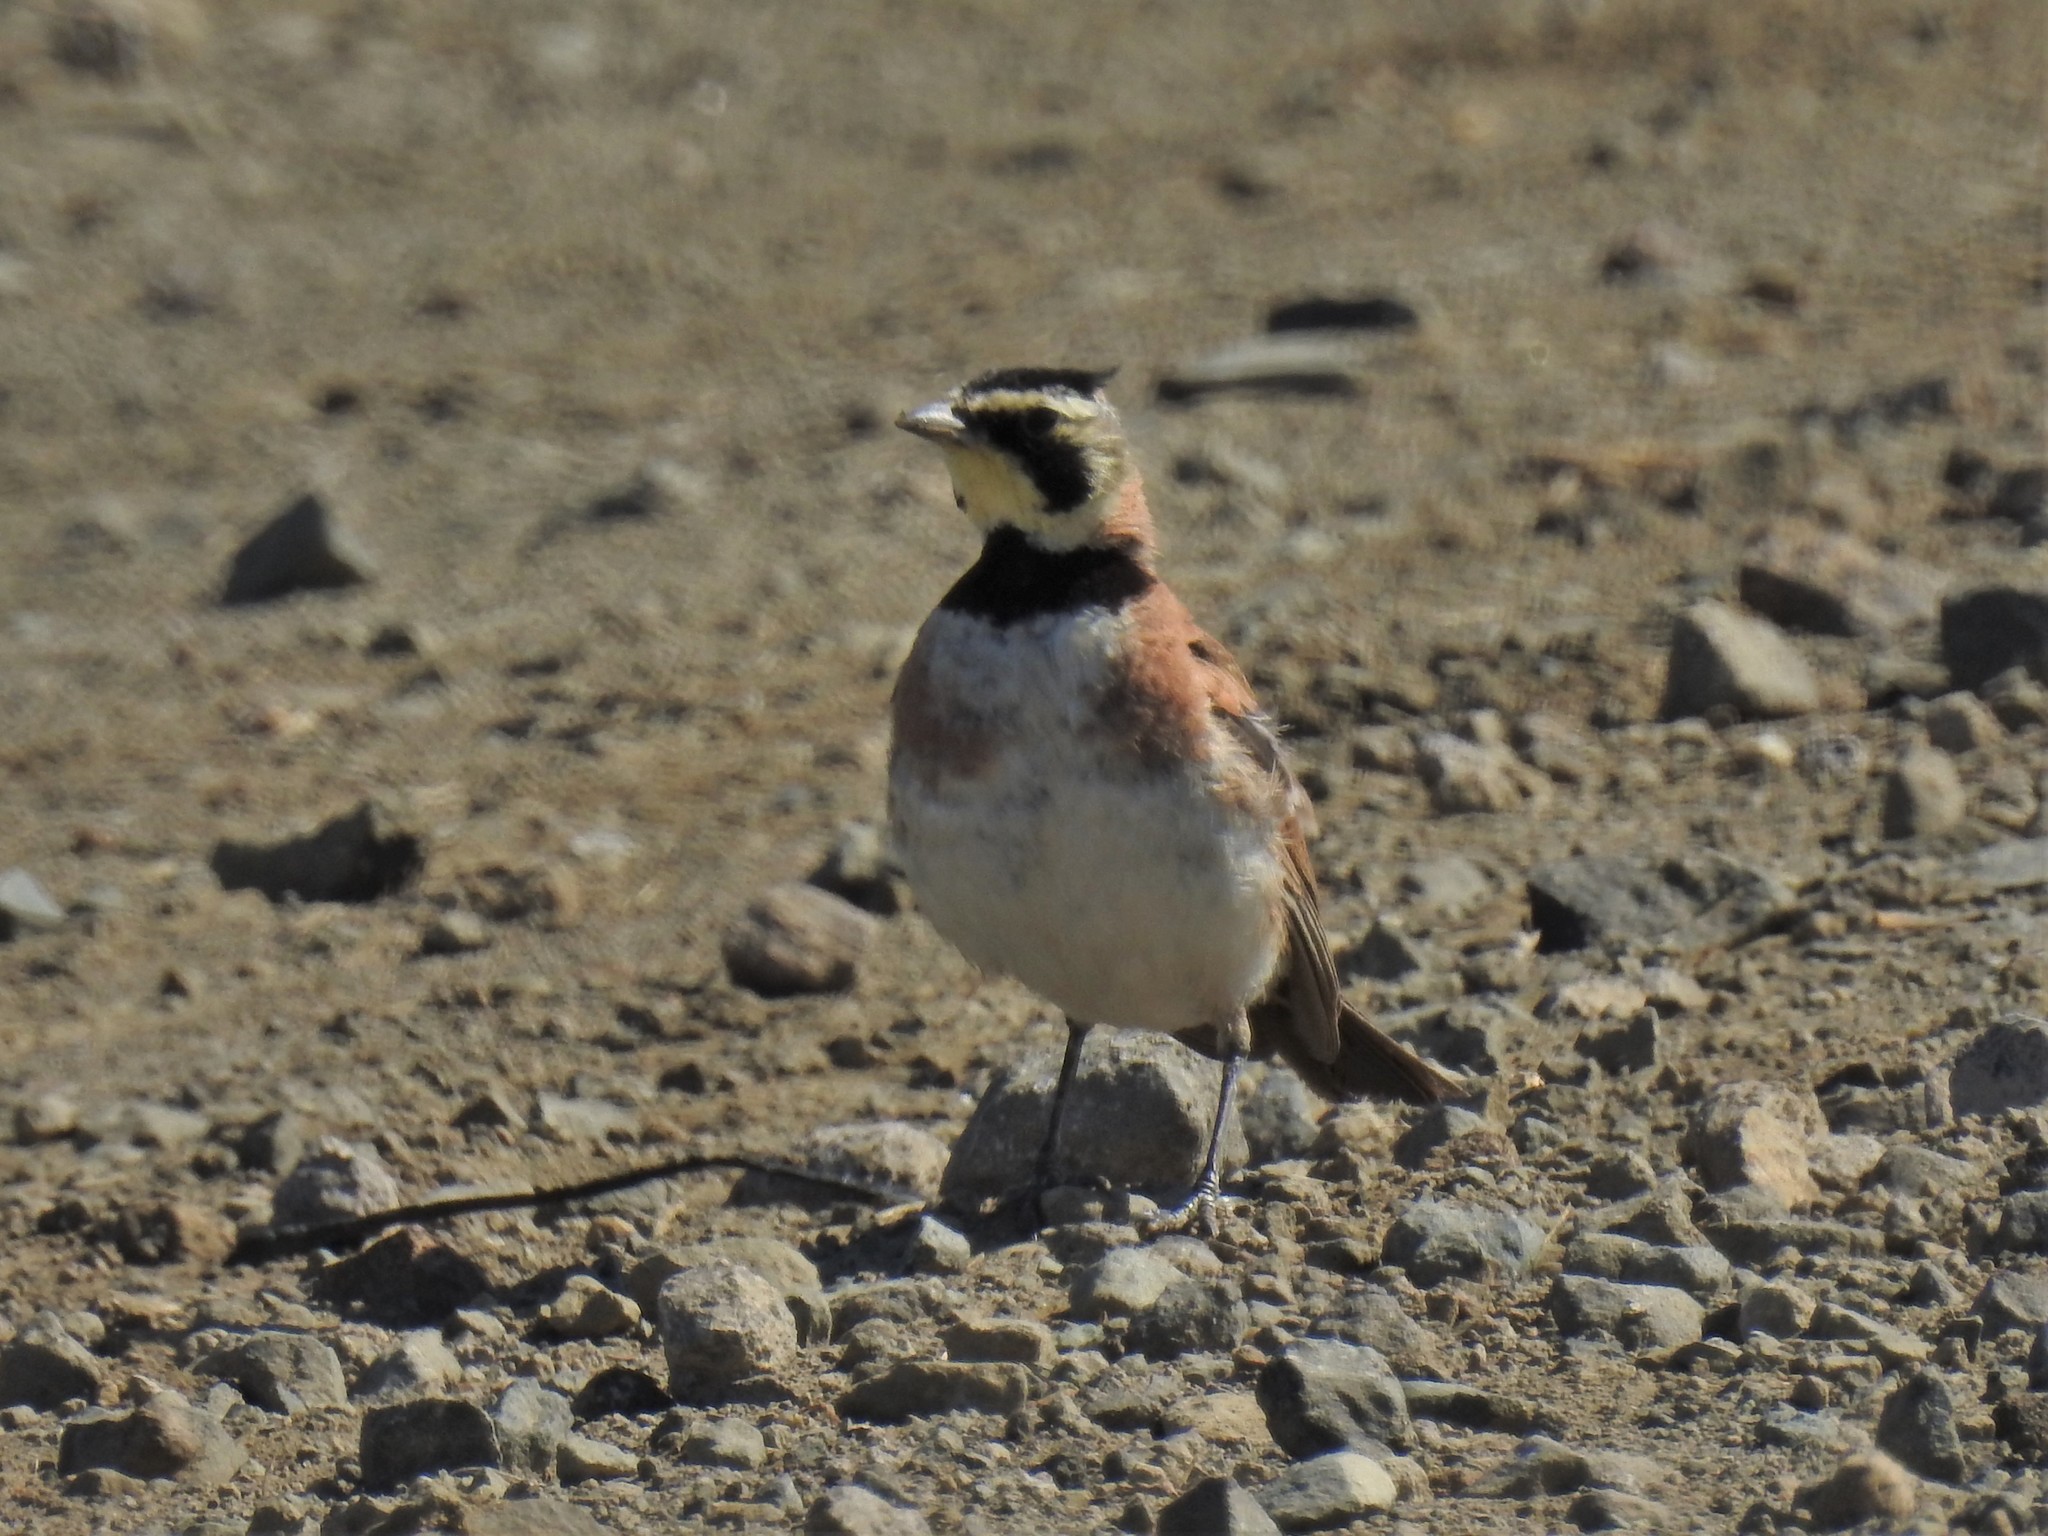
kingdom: Animalia
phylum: Chordata
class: Aves
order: Passeriformes
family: Alaudidae
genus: Eremophila
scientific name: Eremophila alpestris
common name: Horned lark
